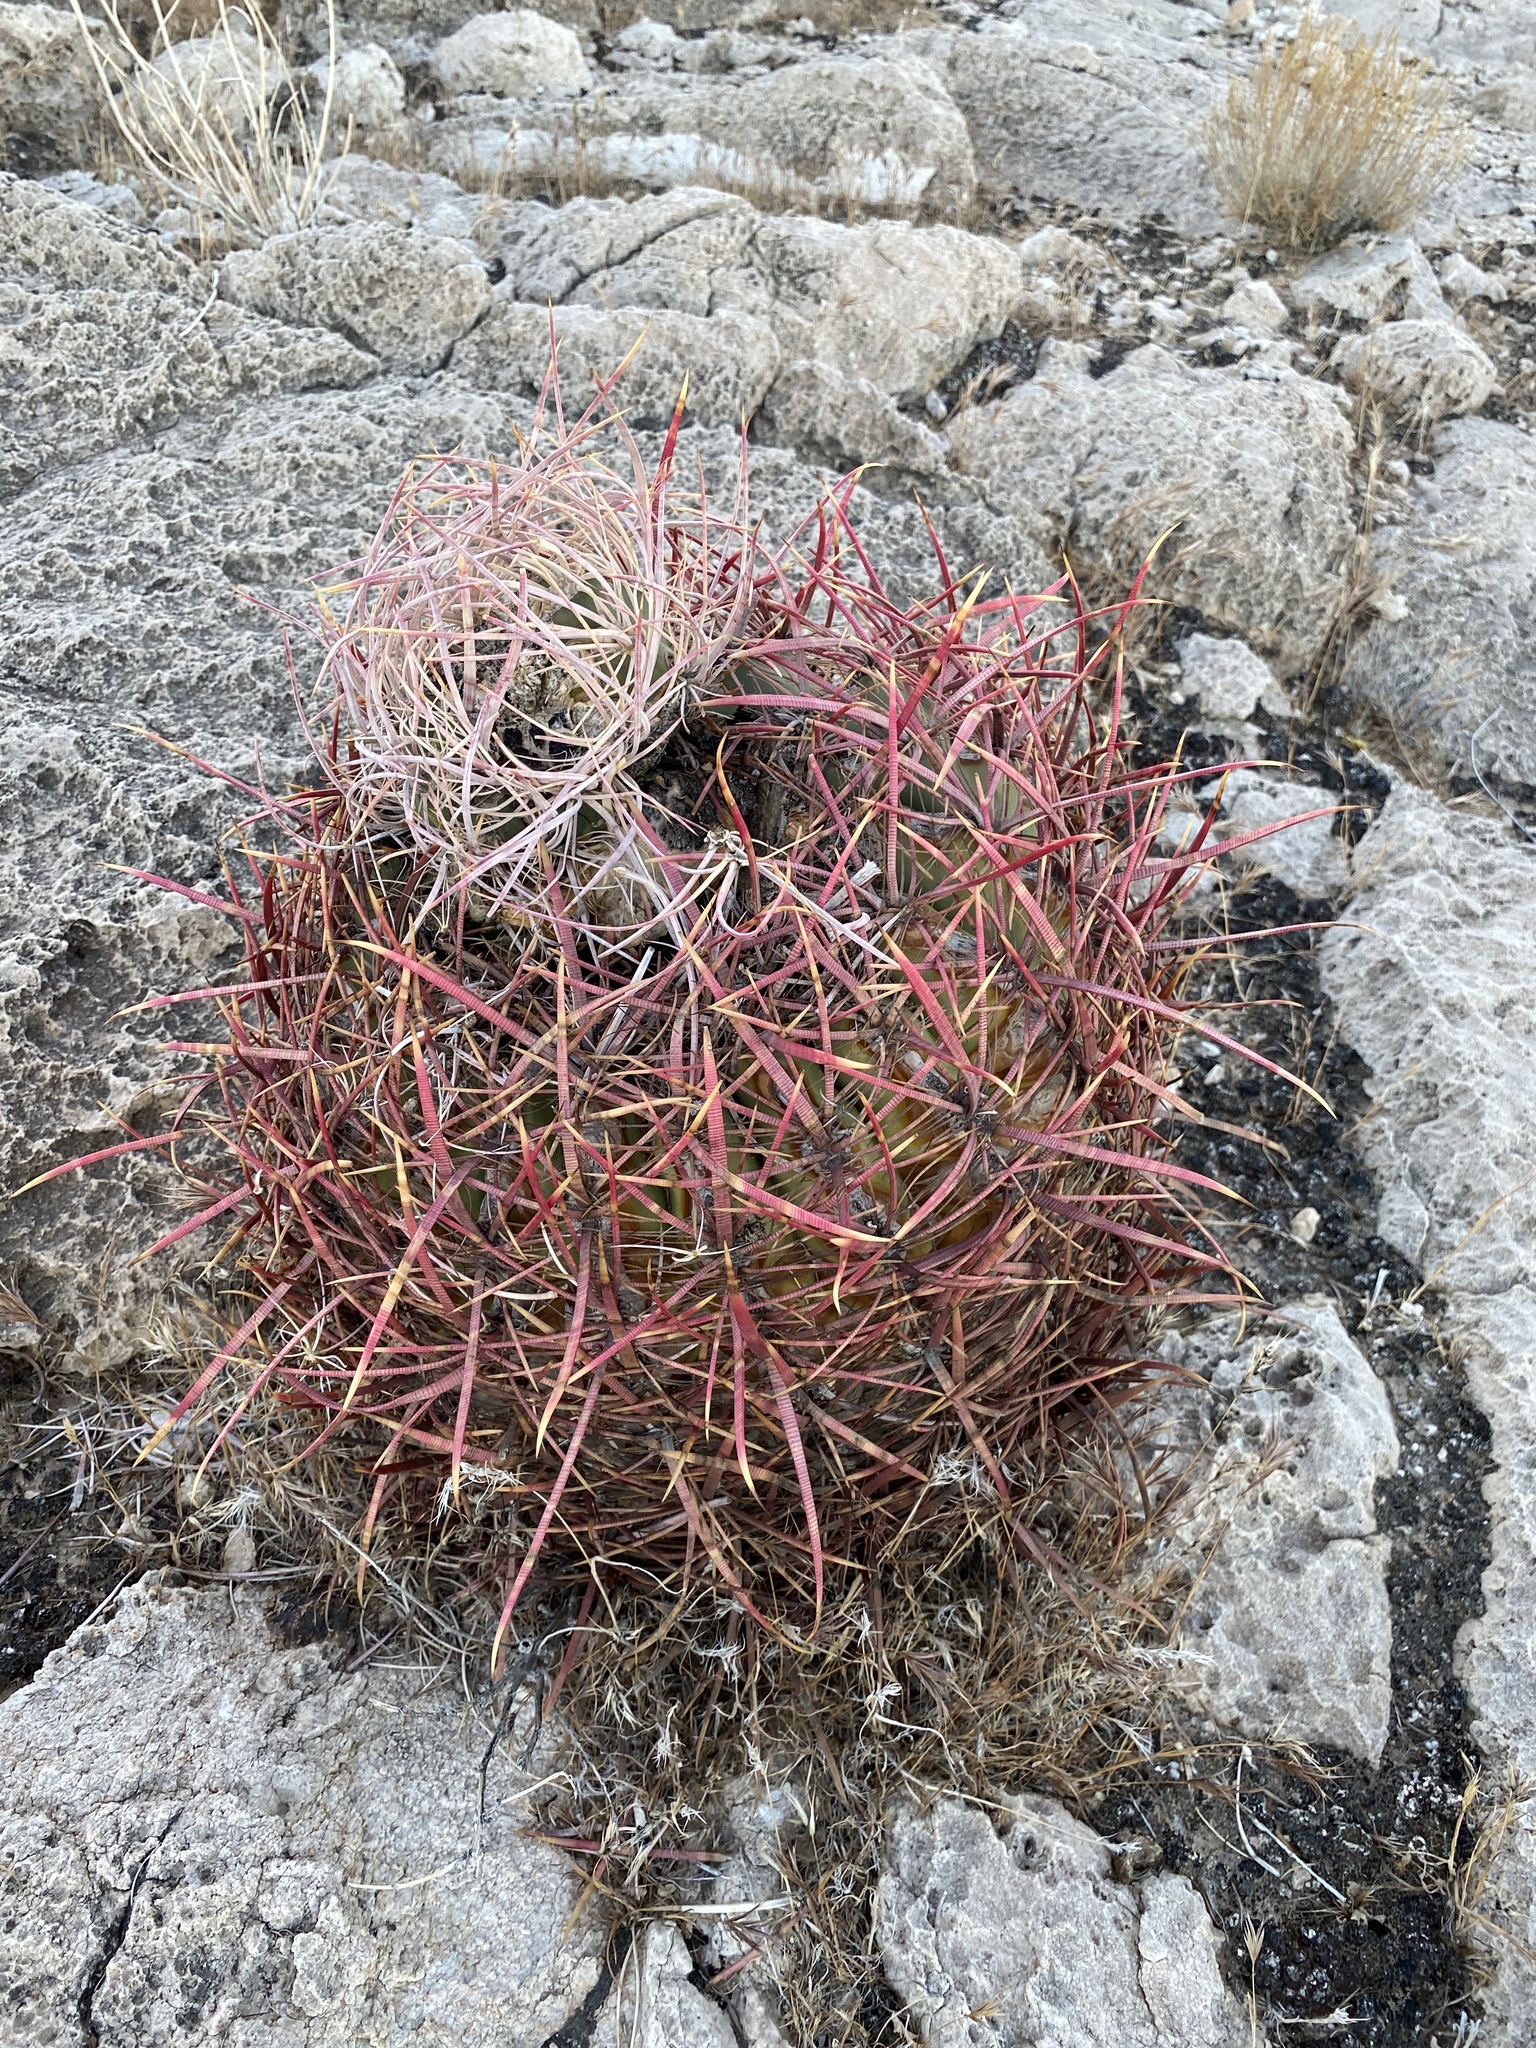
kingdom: Plantae
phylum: Tracheophyta
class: Magnoliopsida
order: Caryophyllales
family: Cactaceae
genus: Ferocactus
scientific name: Ferocactus cylindraceus
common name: California barrel cactus
